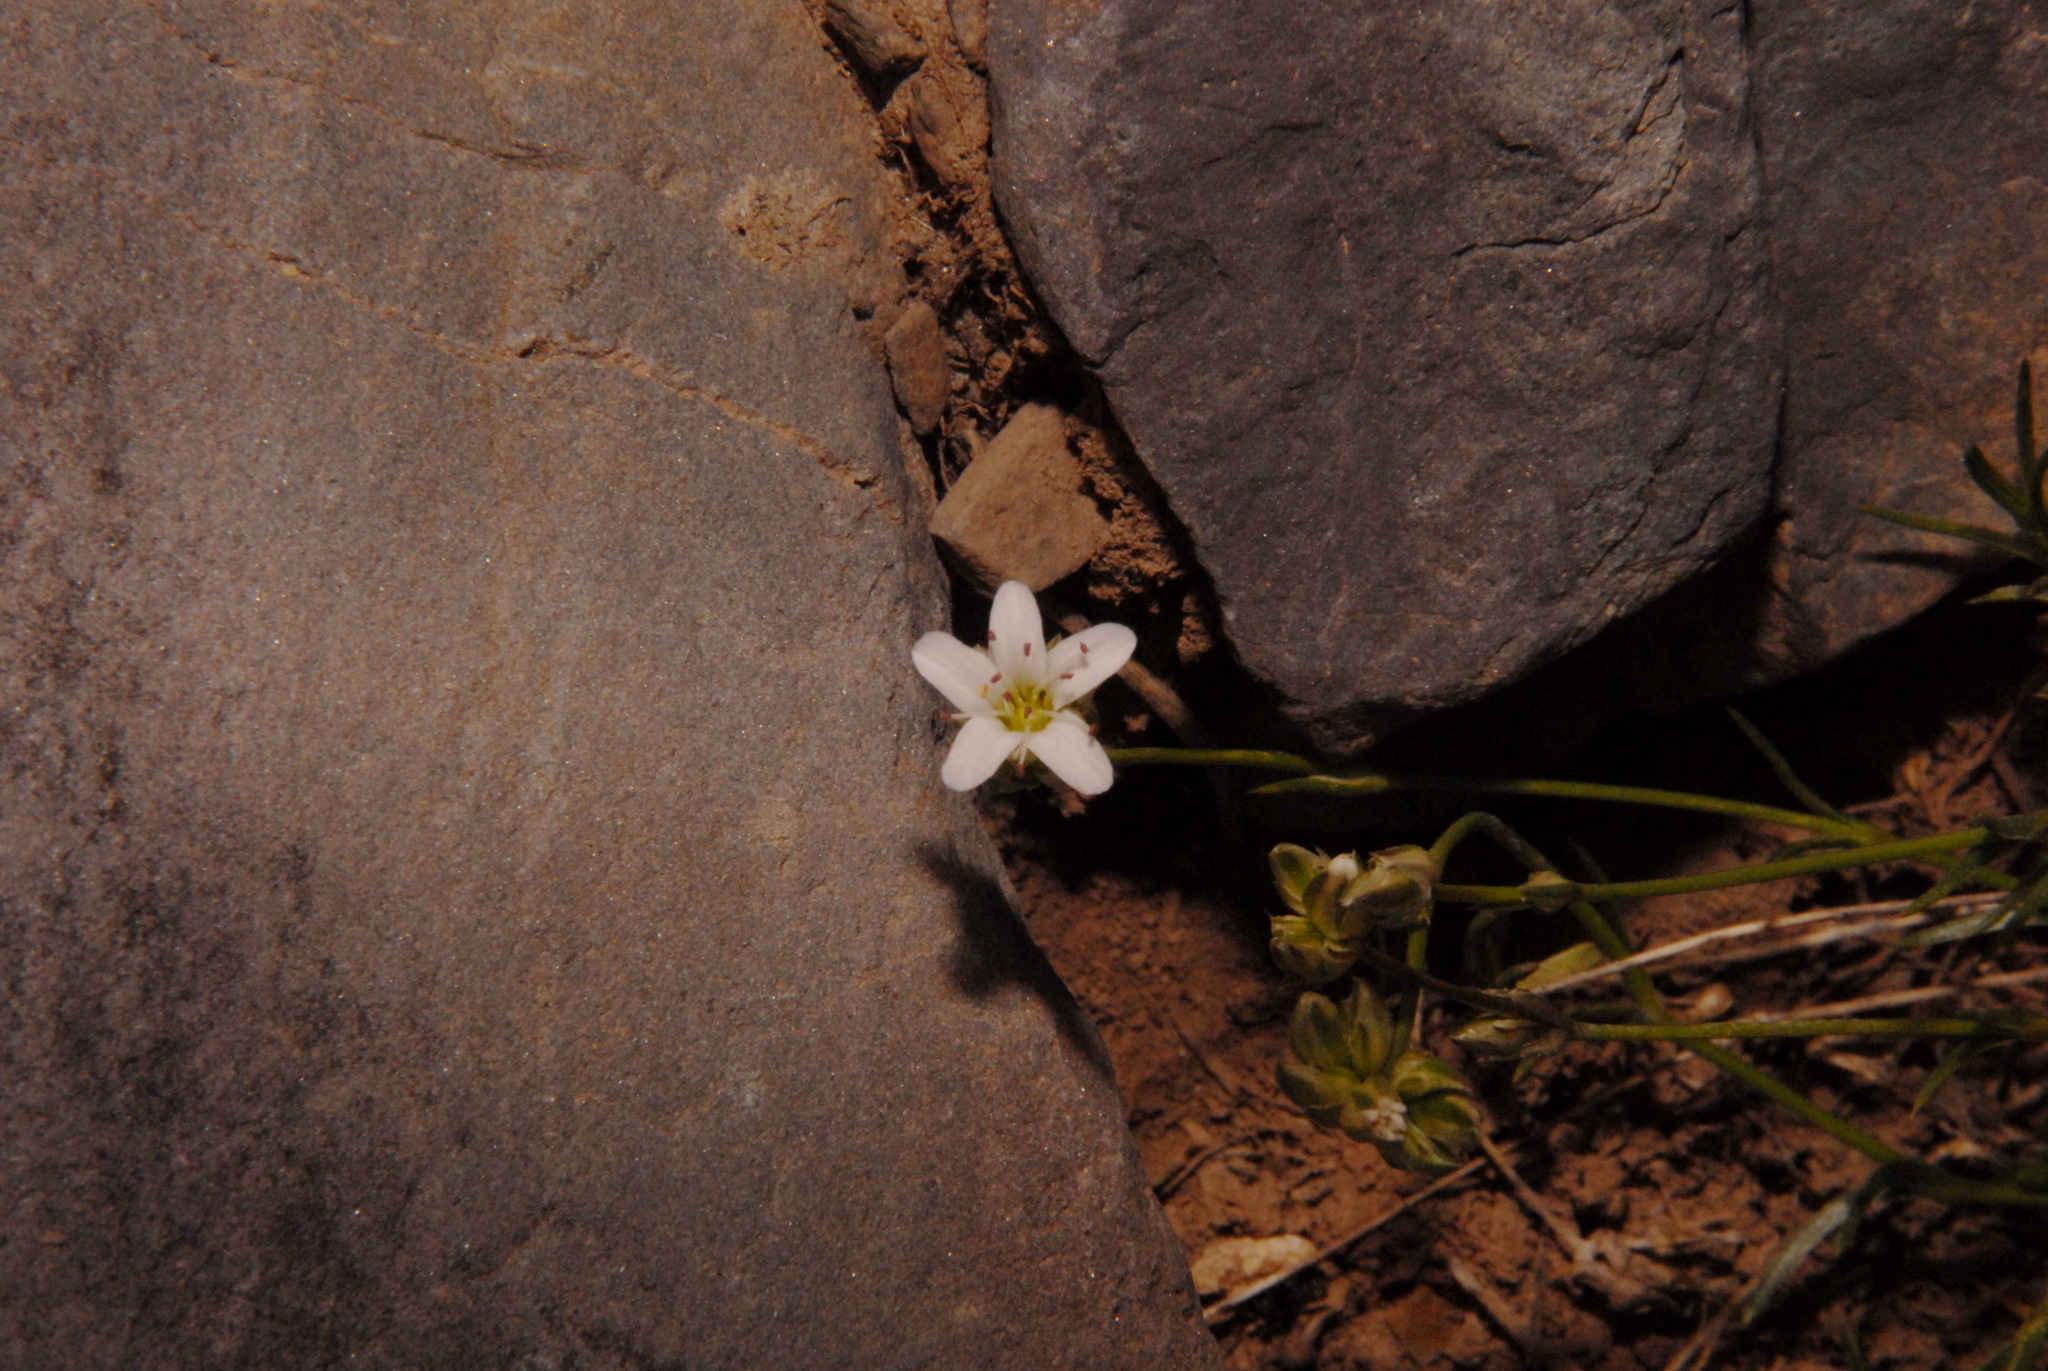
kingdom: Plantae
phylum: Tracheophyta
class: Magnoliopsida
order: Caryophyllales
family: Caryophyllaceae
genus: Eremogone
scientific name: Eremogone kingii
